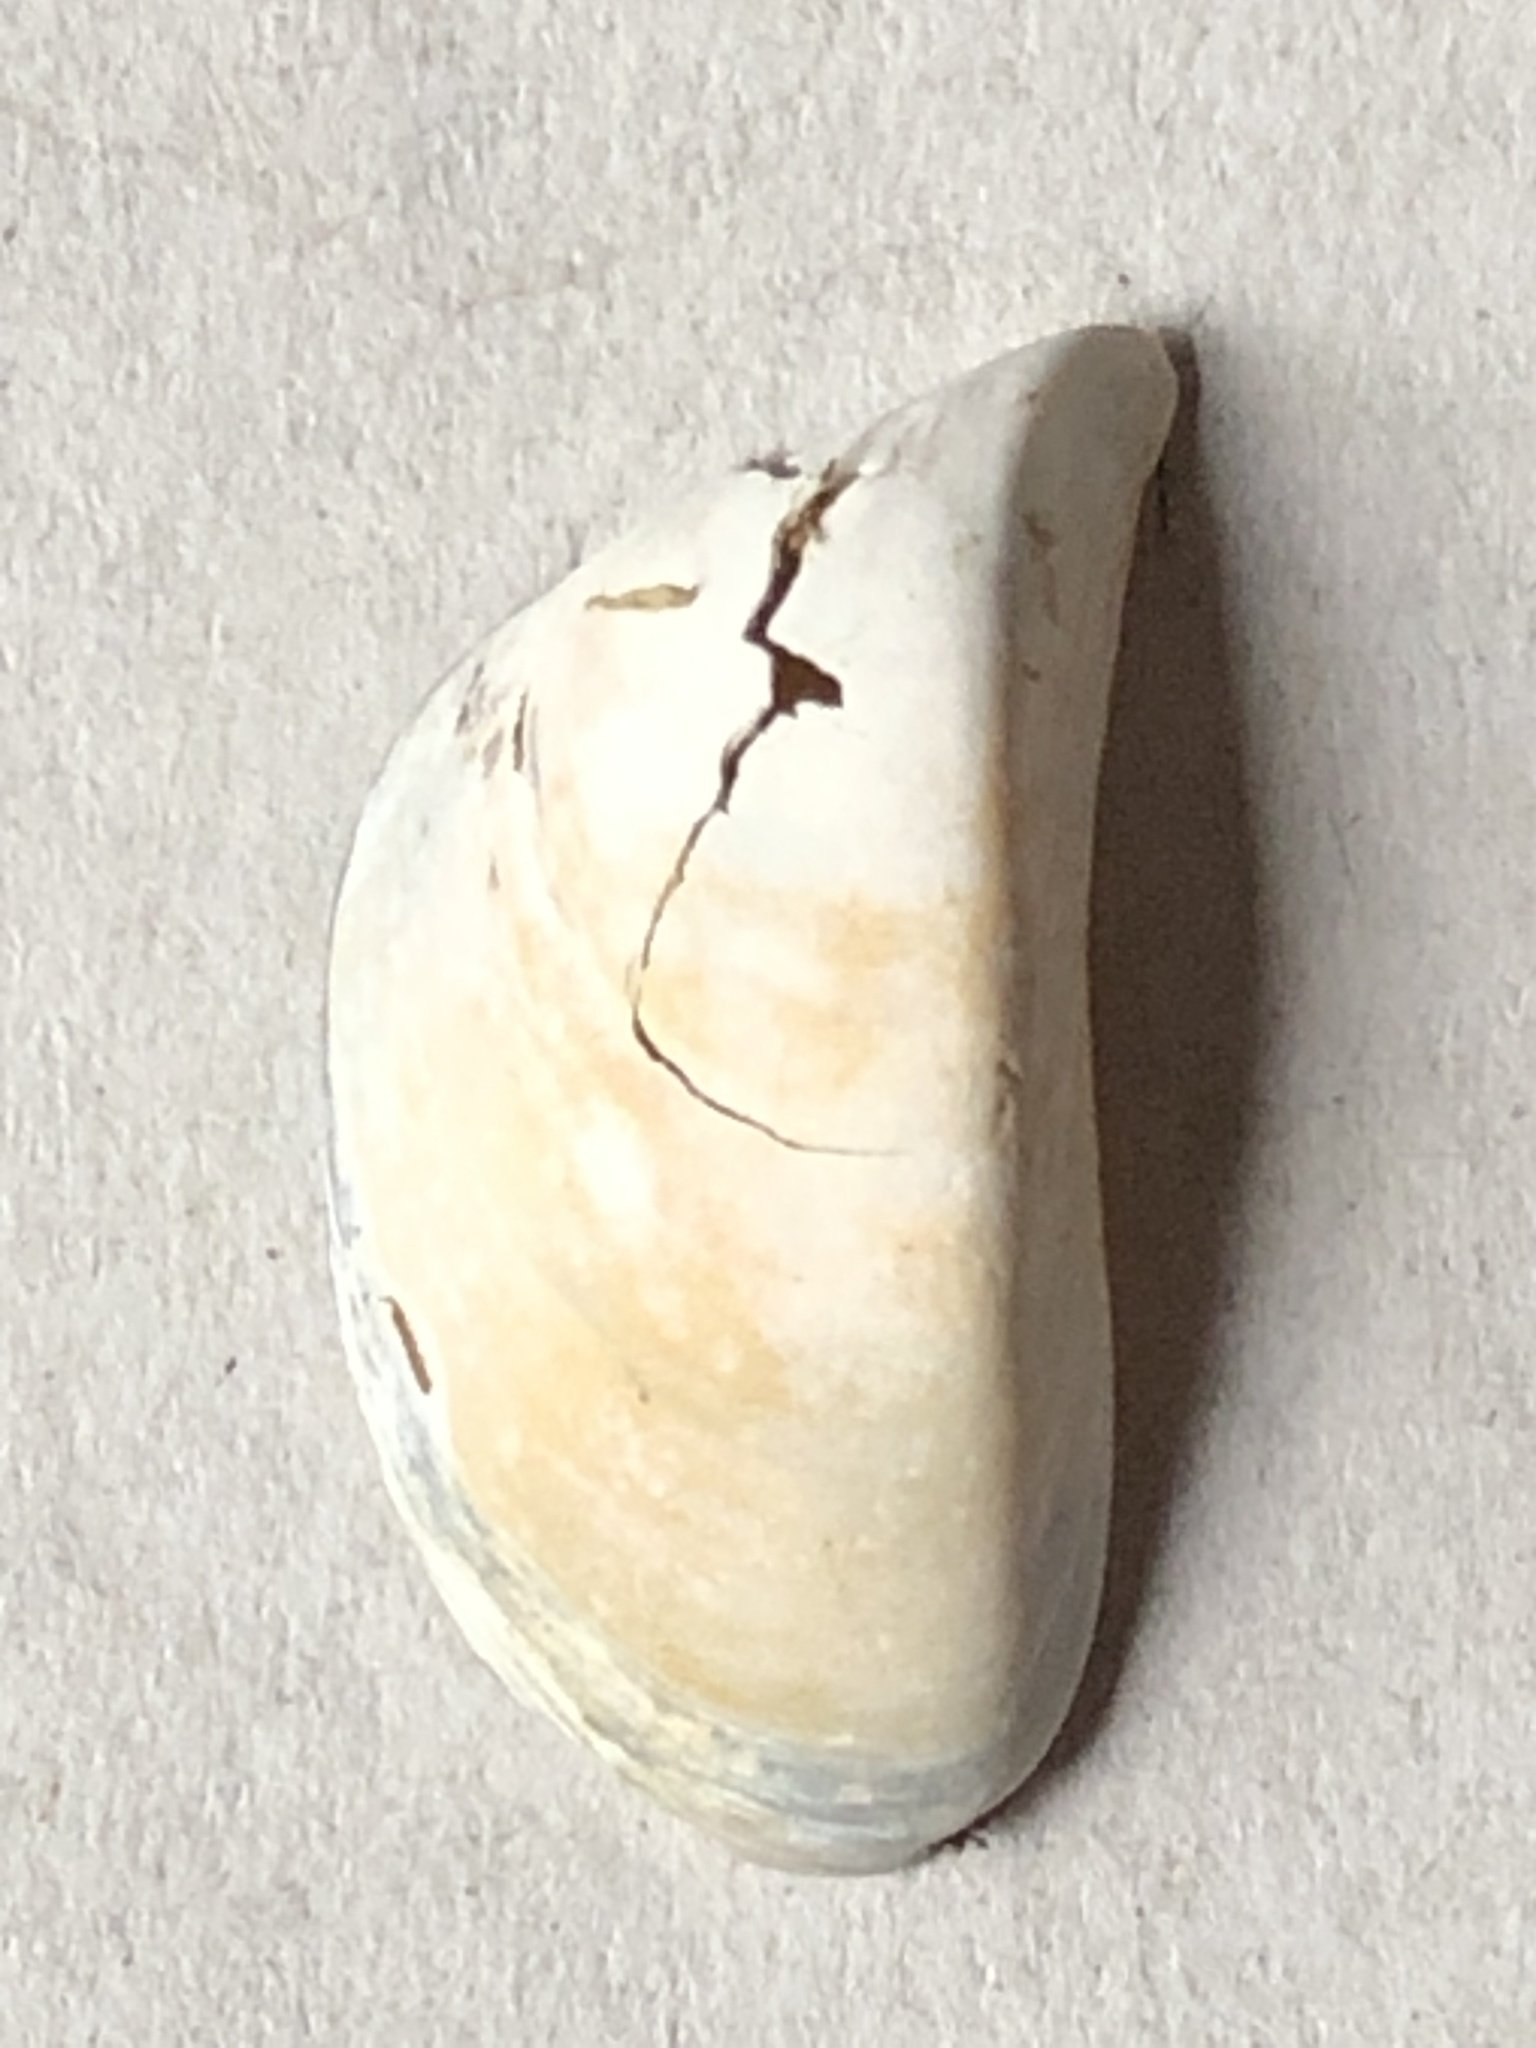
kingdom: Animalia
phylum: Mollusca
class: Bivalvia
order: Myida
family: Dreissenidae
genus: Dreissena
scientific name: Dreissena polymorpha
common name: Zebra mussel
